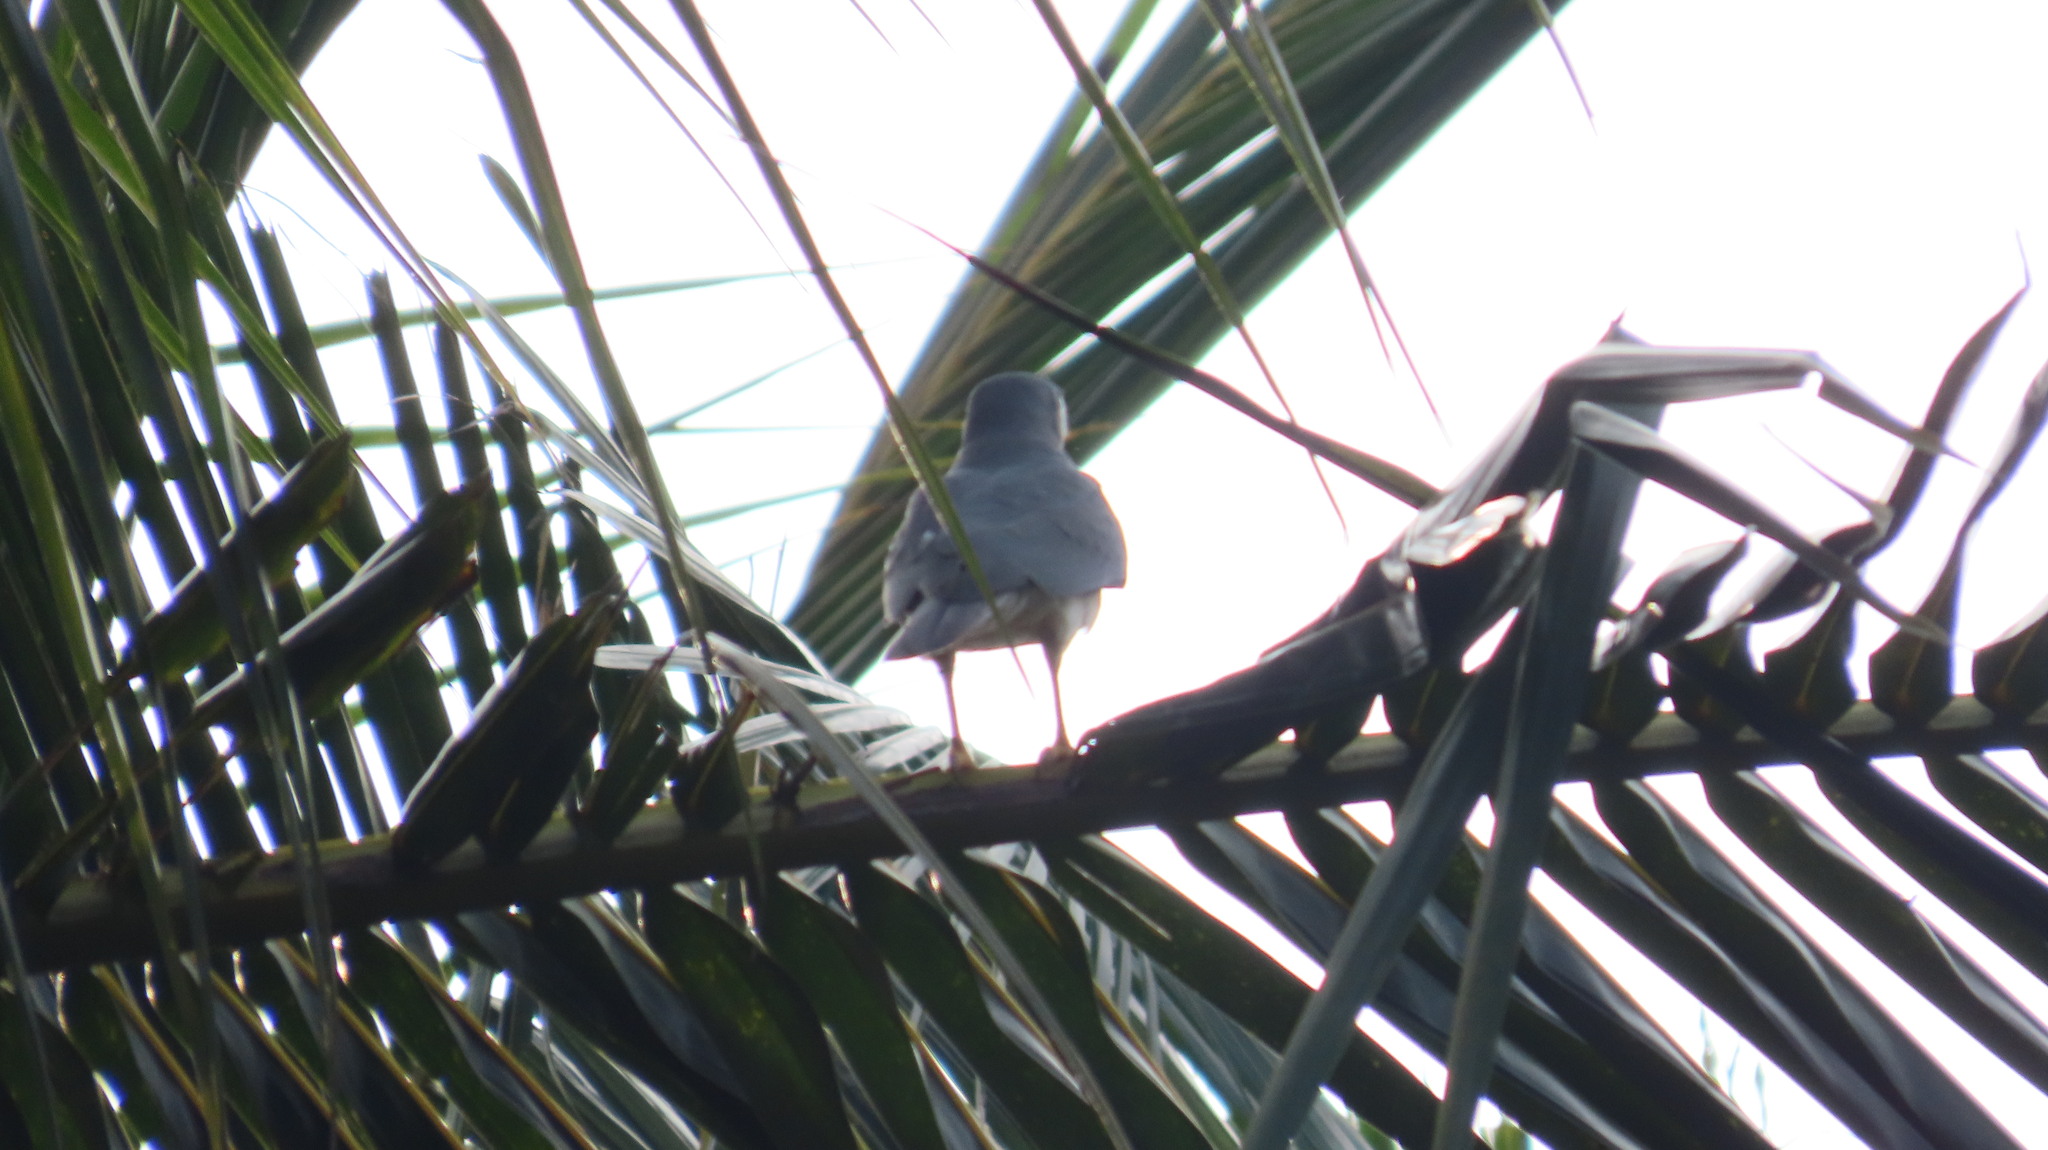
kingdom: Animalia
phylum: Chordata
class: Aves
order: Accipitriformes
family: Accipitridae
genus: Accipiter
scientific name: Accipiter badius
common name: Shikra
